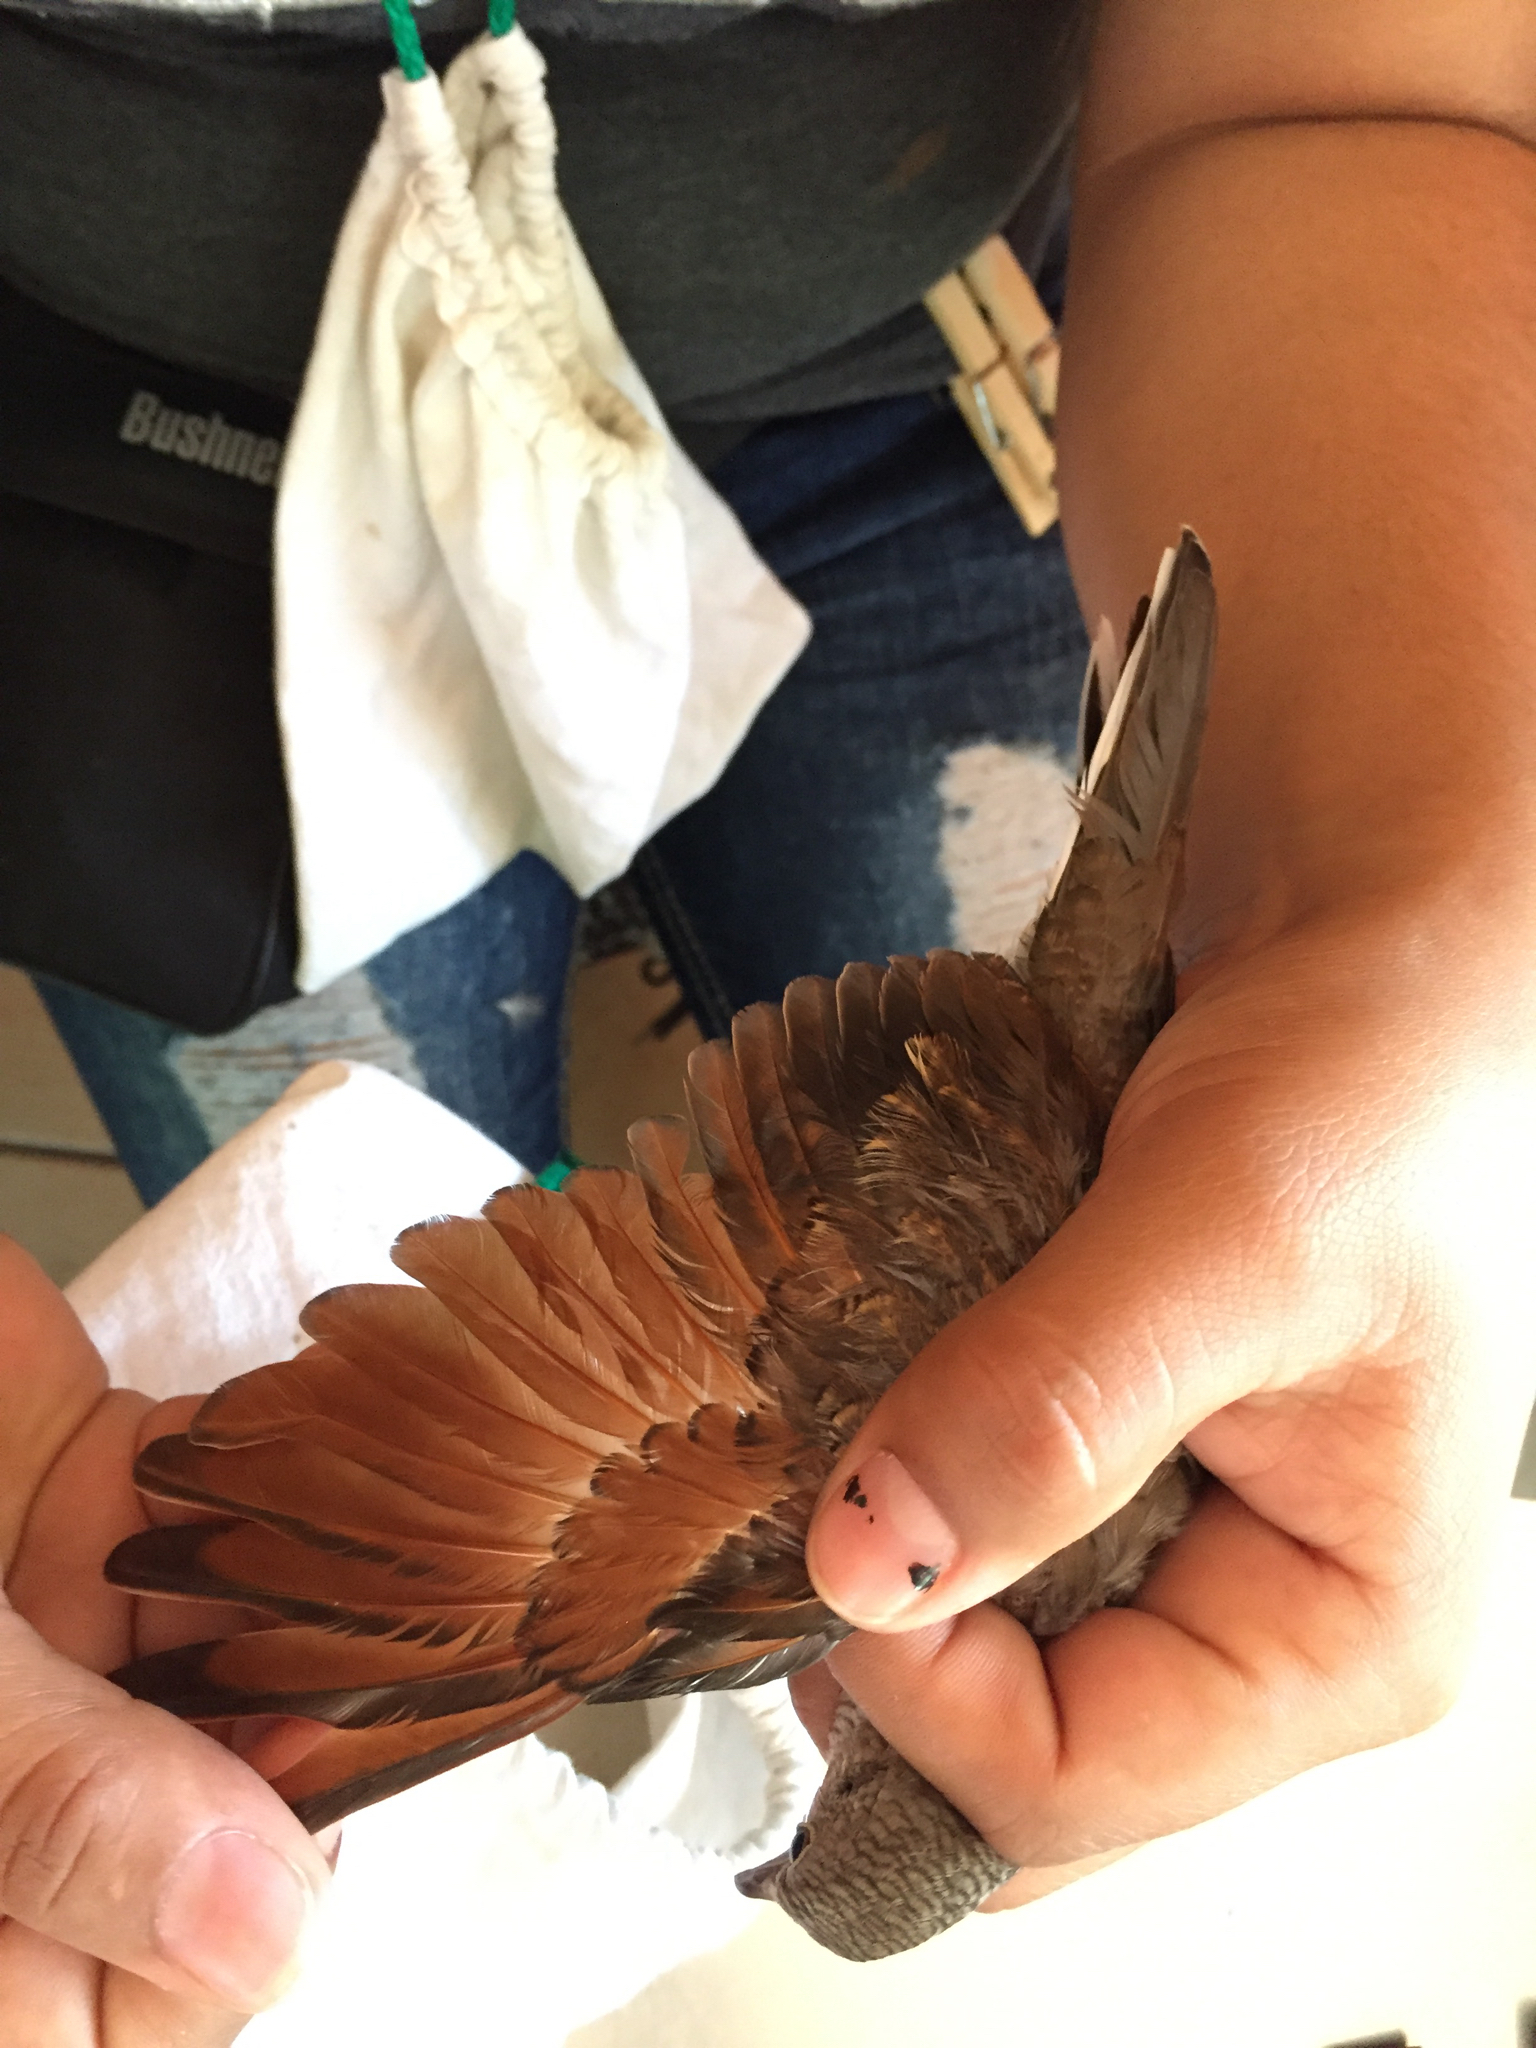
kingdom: Animalia
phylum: Chordata
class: Aves
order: Columbiformes
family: Columbidae
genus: Columbina
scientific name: Columbina inca
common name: Inca dove
